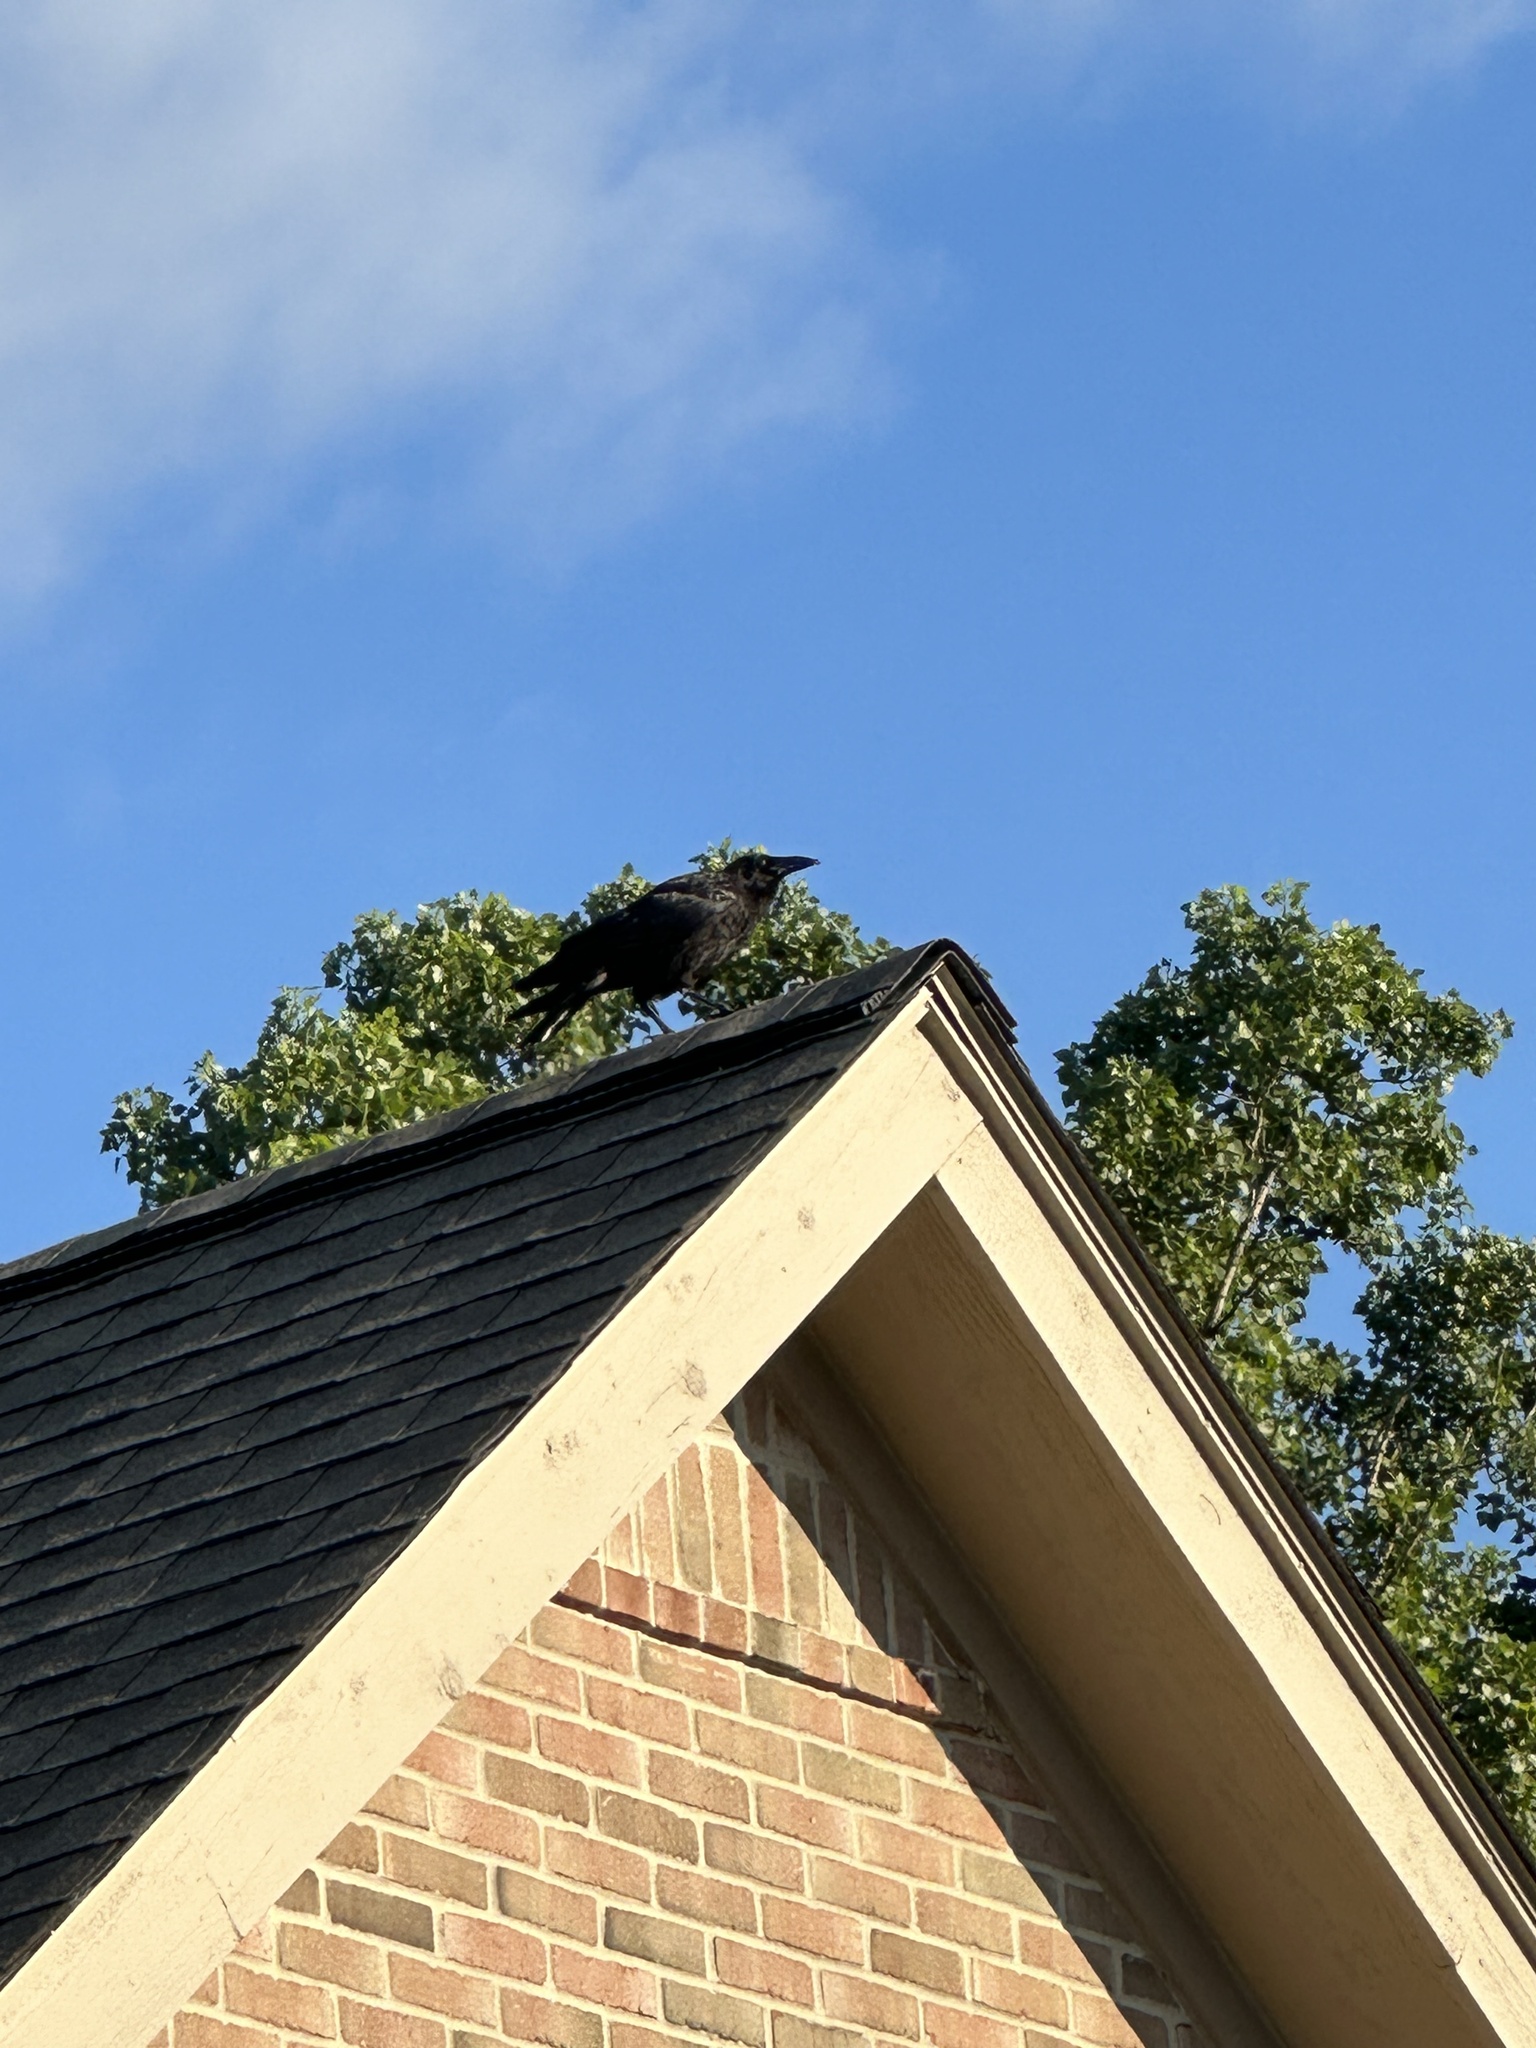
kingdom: Animalia
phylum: Chordata
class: Aves
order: Passeriformes
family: Corvidae
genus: Corvus
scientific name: Corvus brachyrhynchos
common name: American crow
